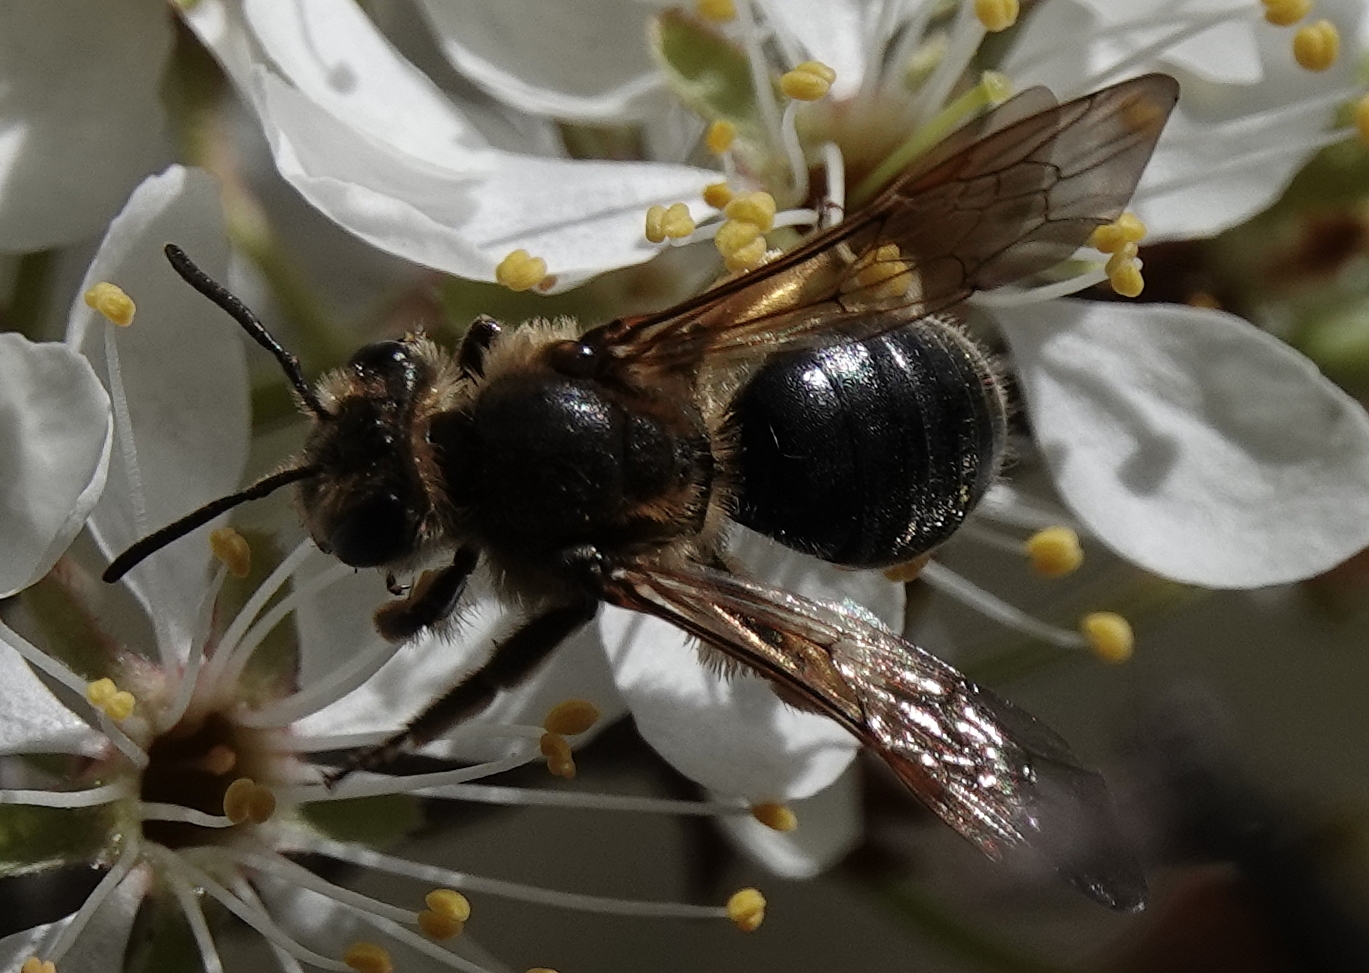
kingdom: Animalia
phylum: Arthropoda
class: Insecta
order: Hymenoptera
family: Andrenidae
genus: Andrena
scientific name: Andrena crataegi
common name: Hawthorn mining bee
